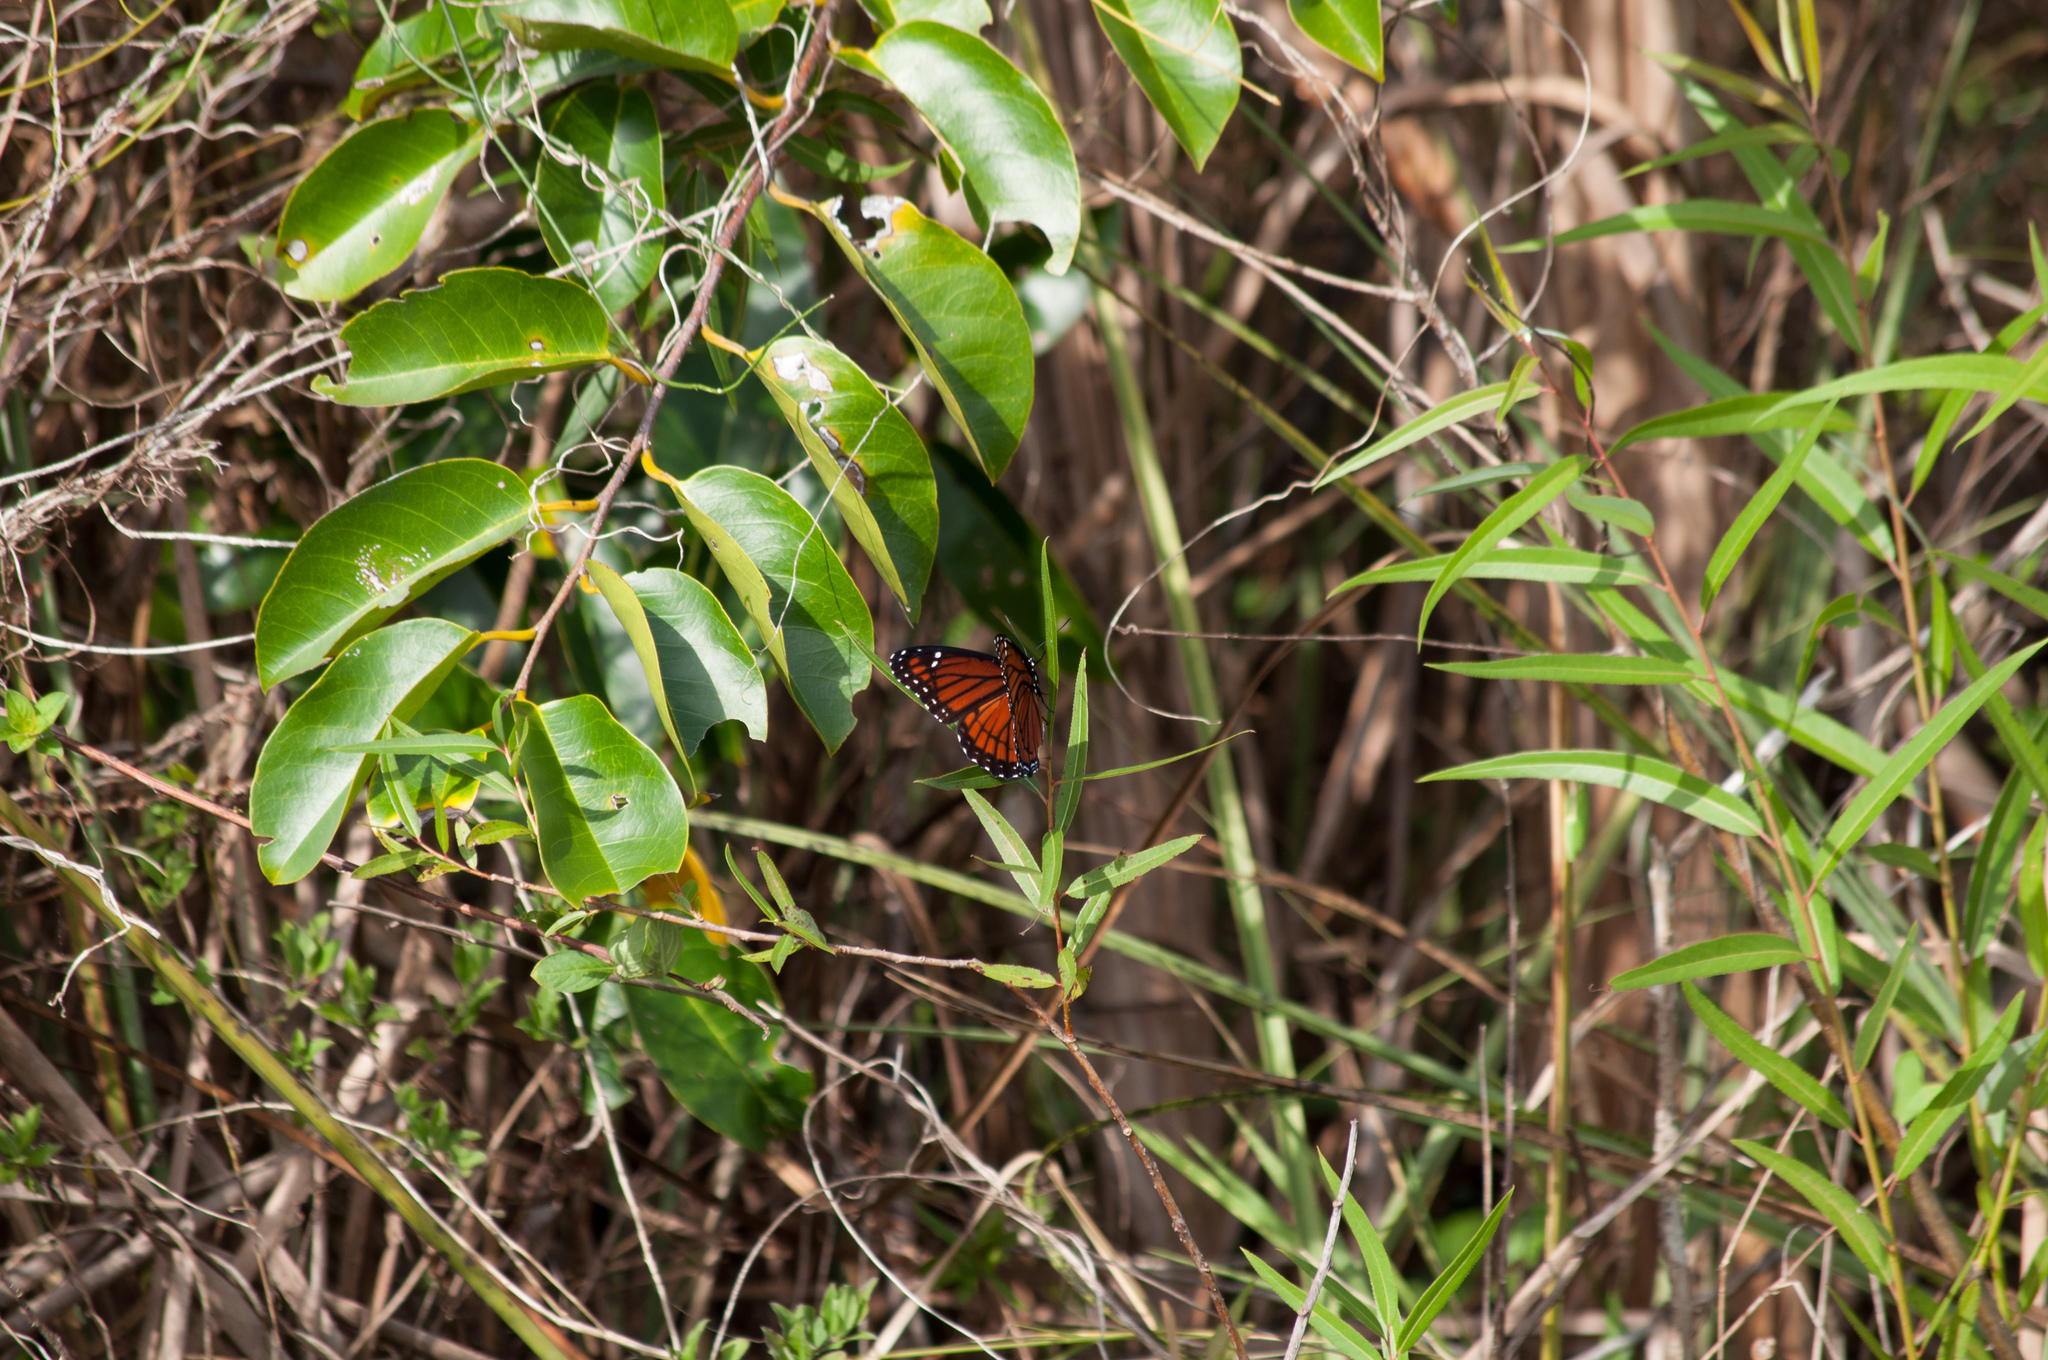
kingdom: Animalia
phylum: Arthropoda
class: Insecta
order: Lepidoptera
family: Nymphalidae
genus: Limenitis
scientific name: Limenitis archippus
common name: Viceroy
